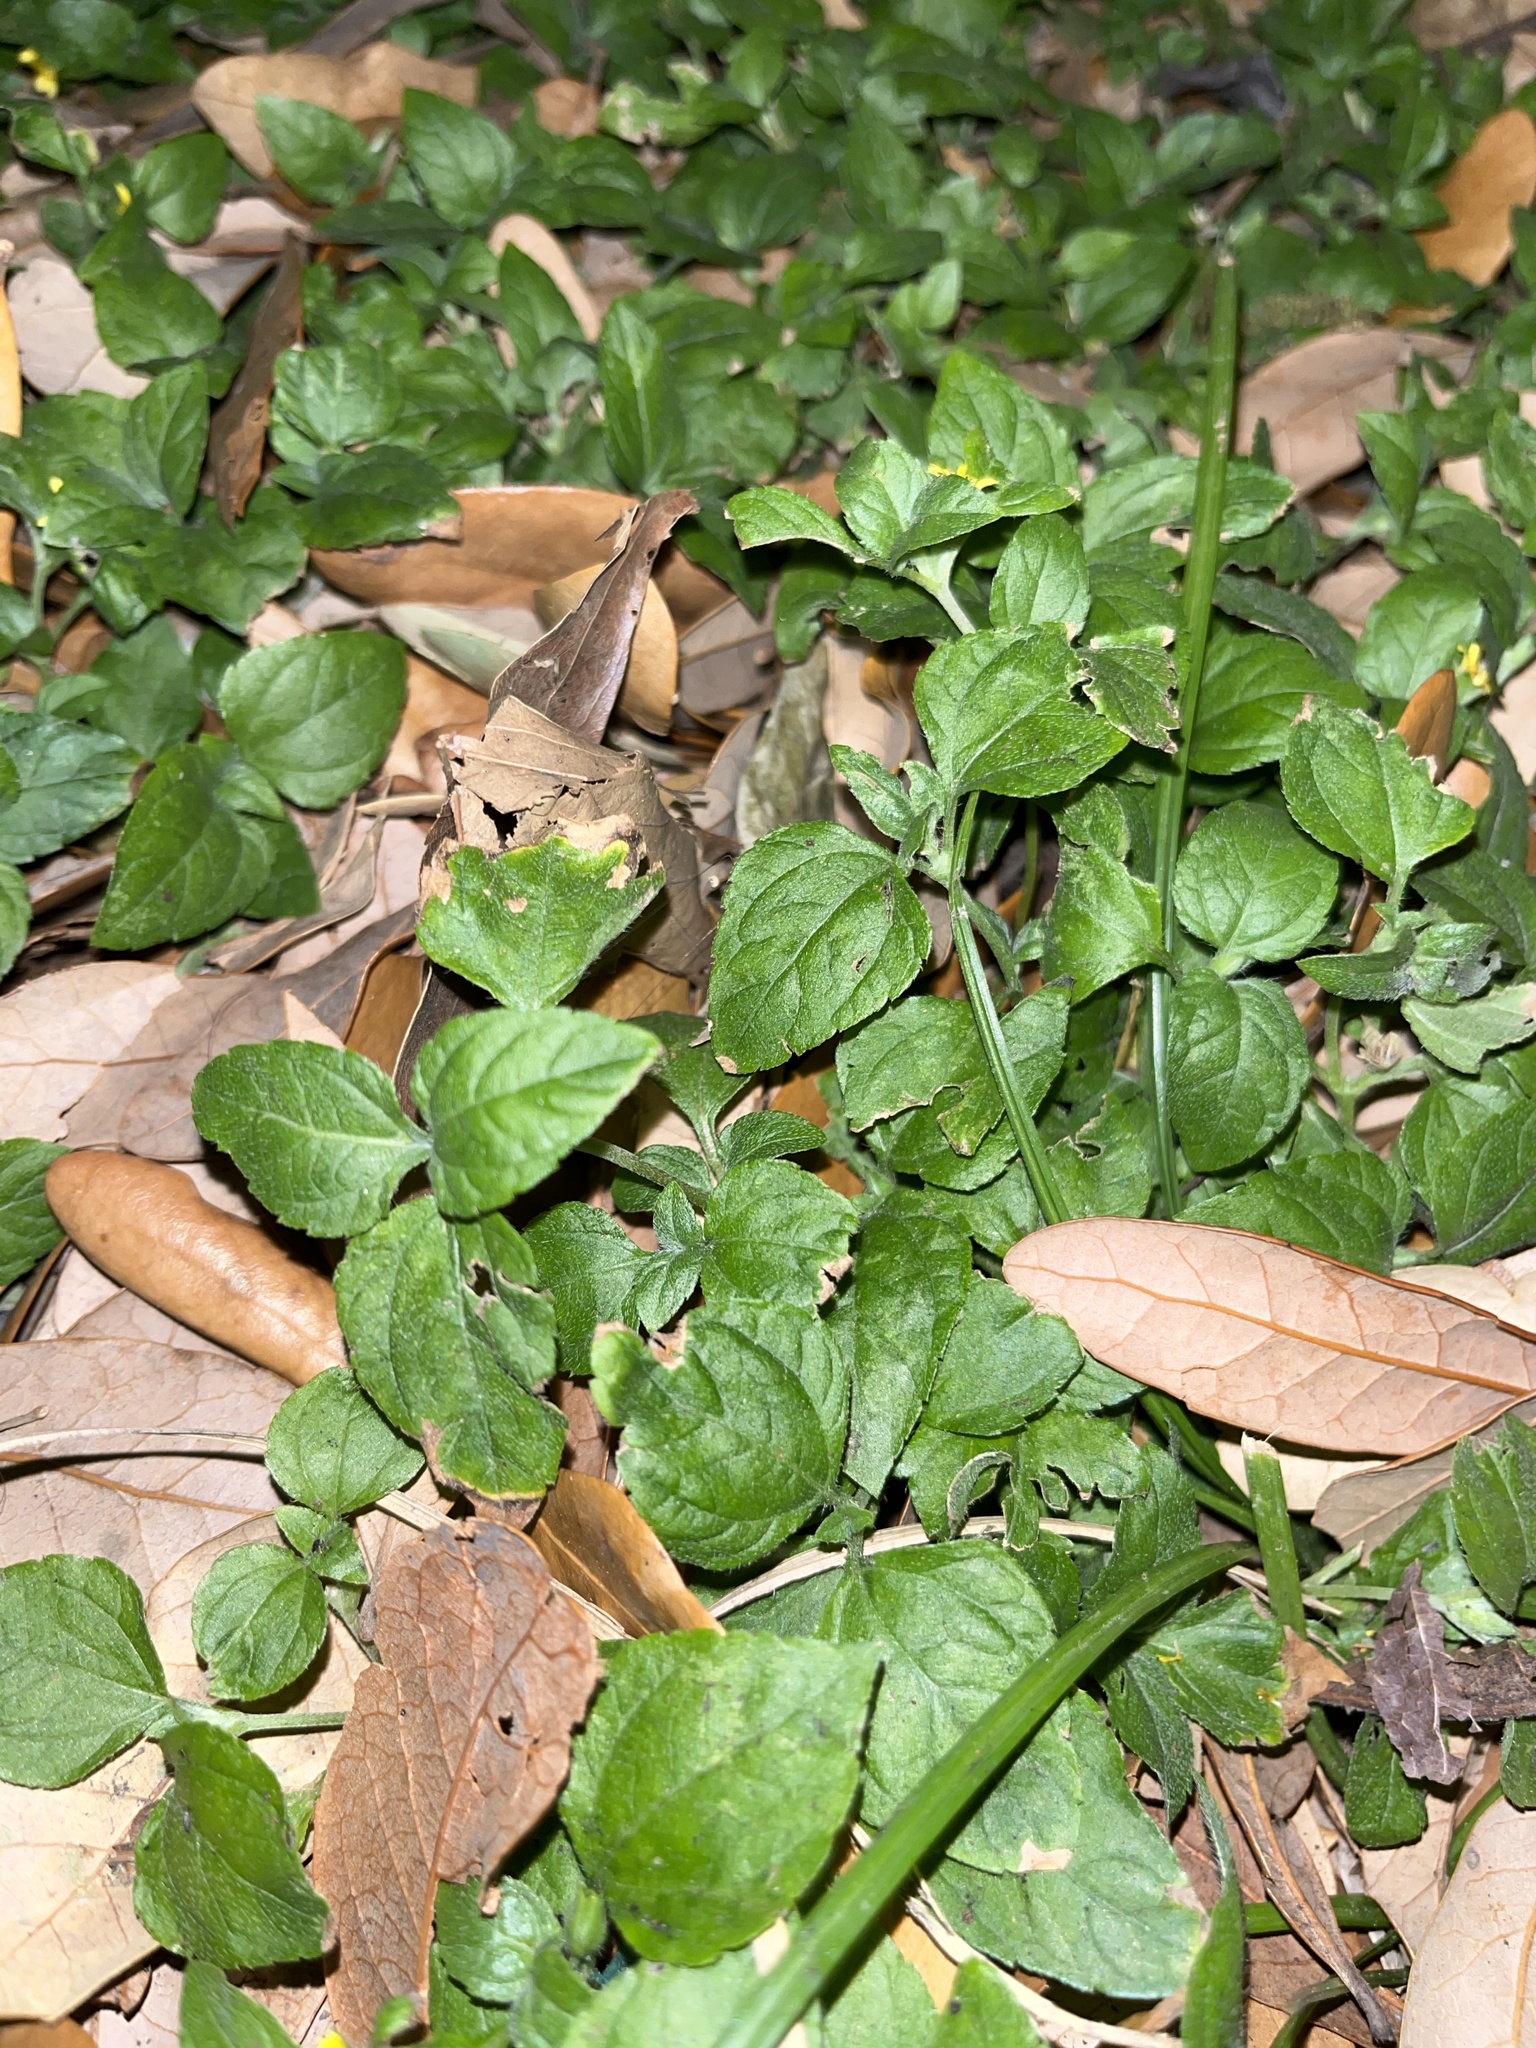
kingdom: Plantae
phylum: Tracheophyta
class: Magnoliopsida
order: Asterales
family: Asteraceae
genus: Calyptocarpus
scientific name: Calyptocarpus vialis
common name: Straggler daisy
